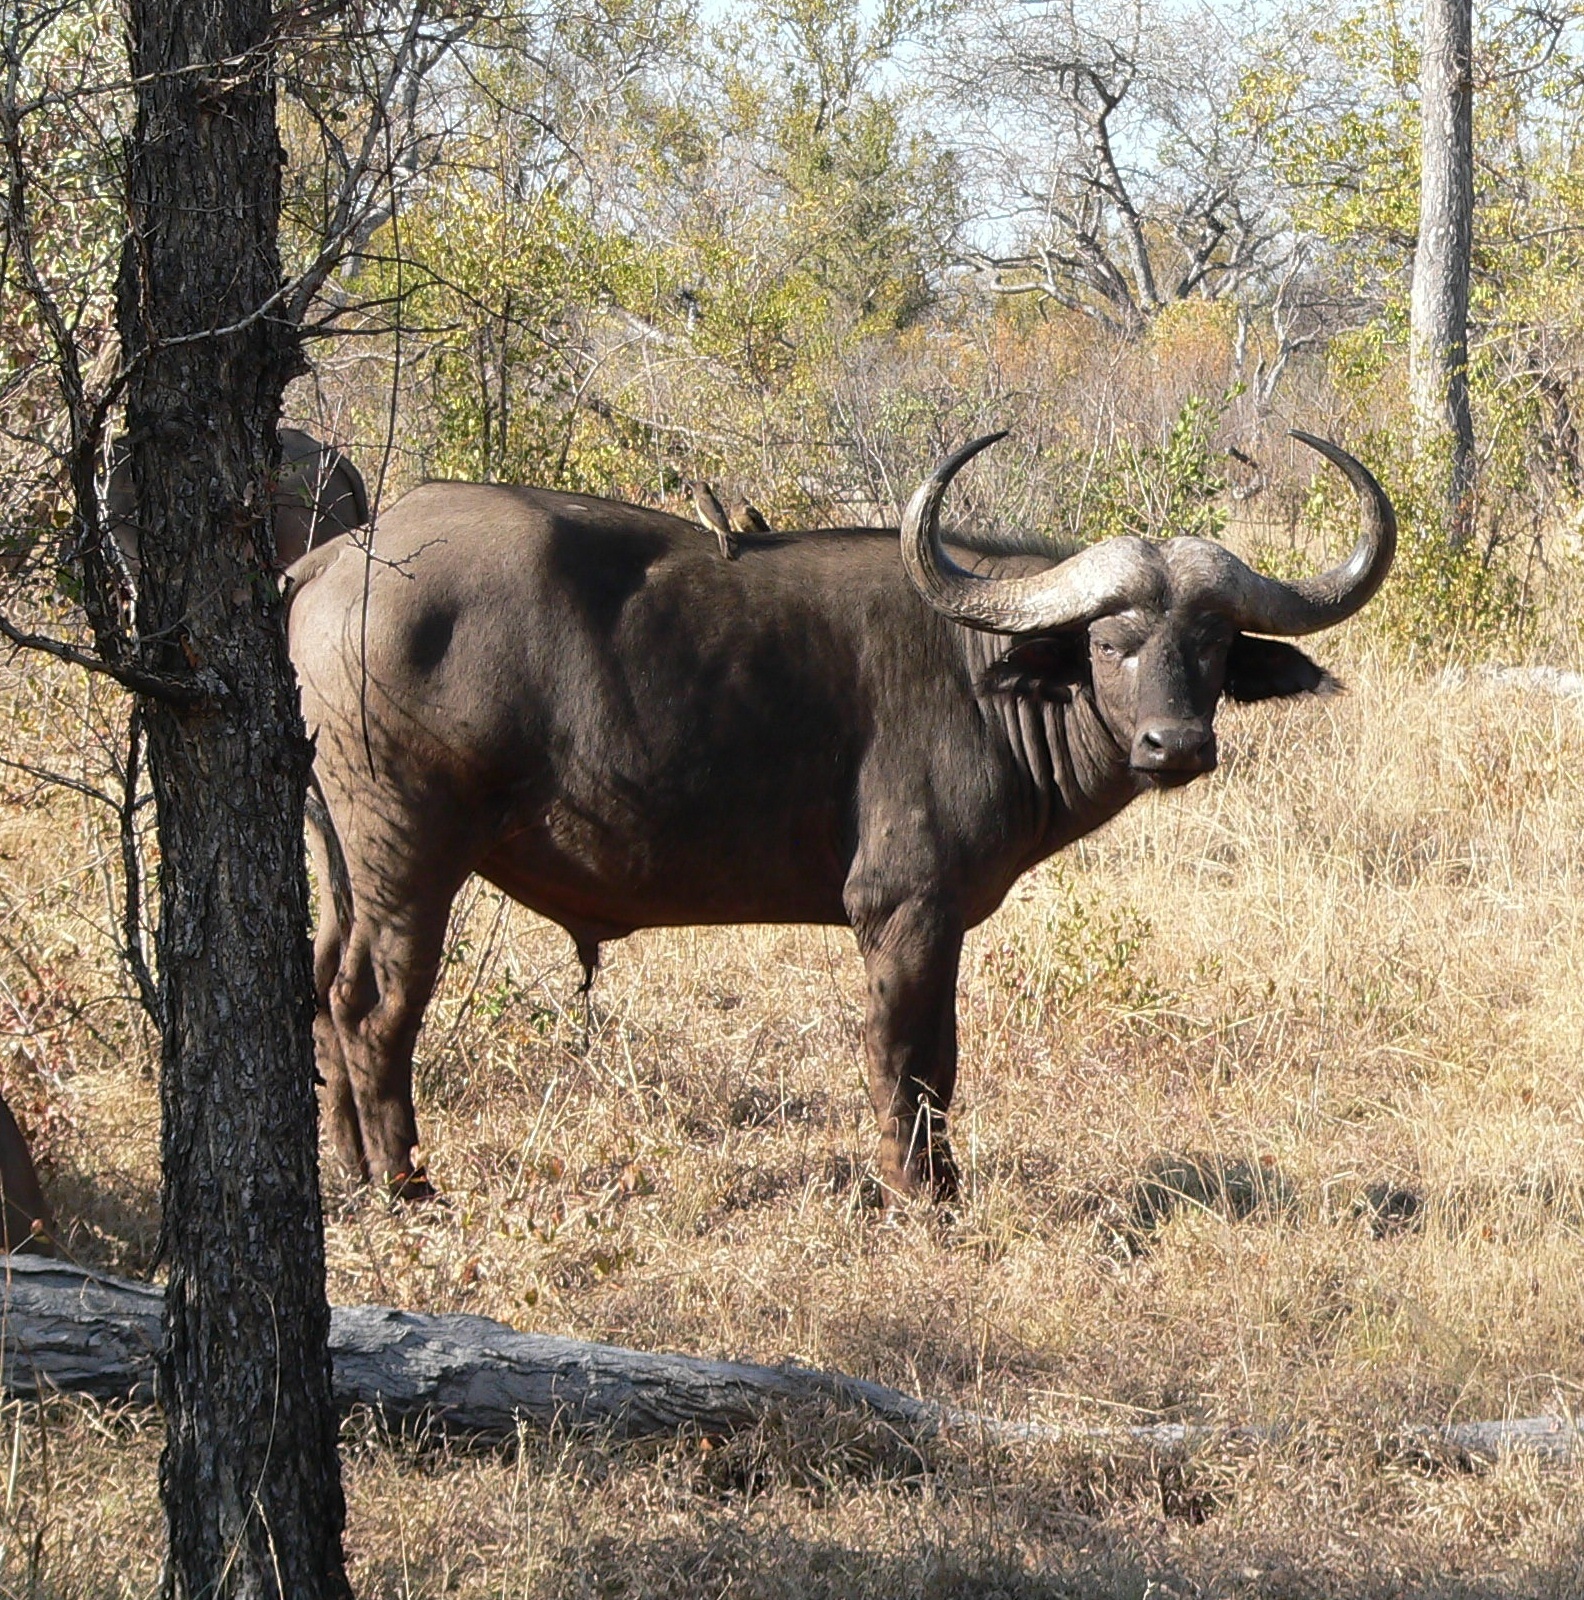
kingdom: Animalia
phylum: Chordata
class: Mammalia
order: Artiodactyla
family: Bovidae
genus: Syncerus
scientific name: Syncerus caffer
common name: African buffalo
